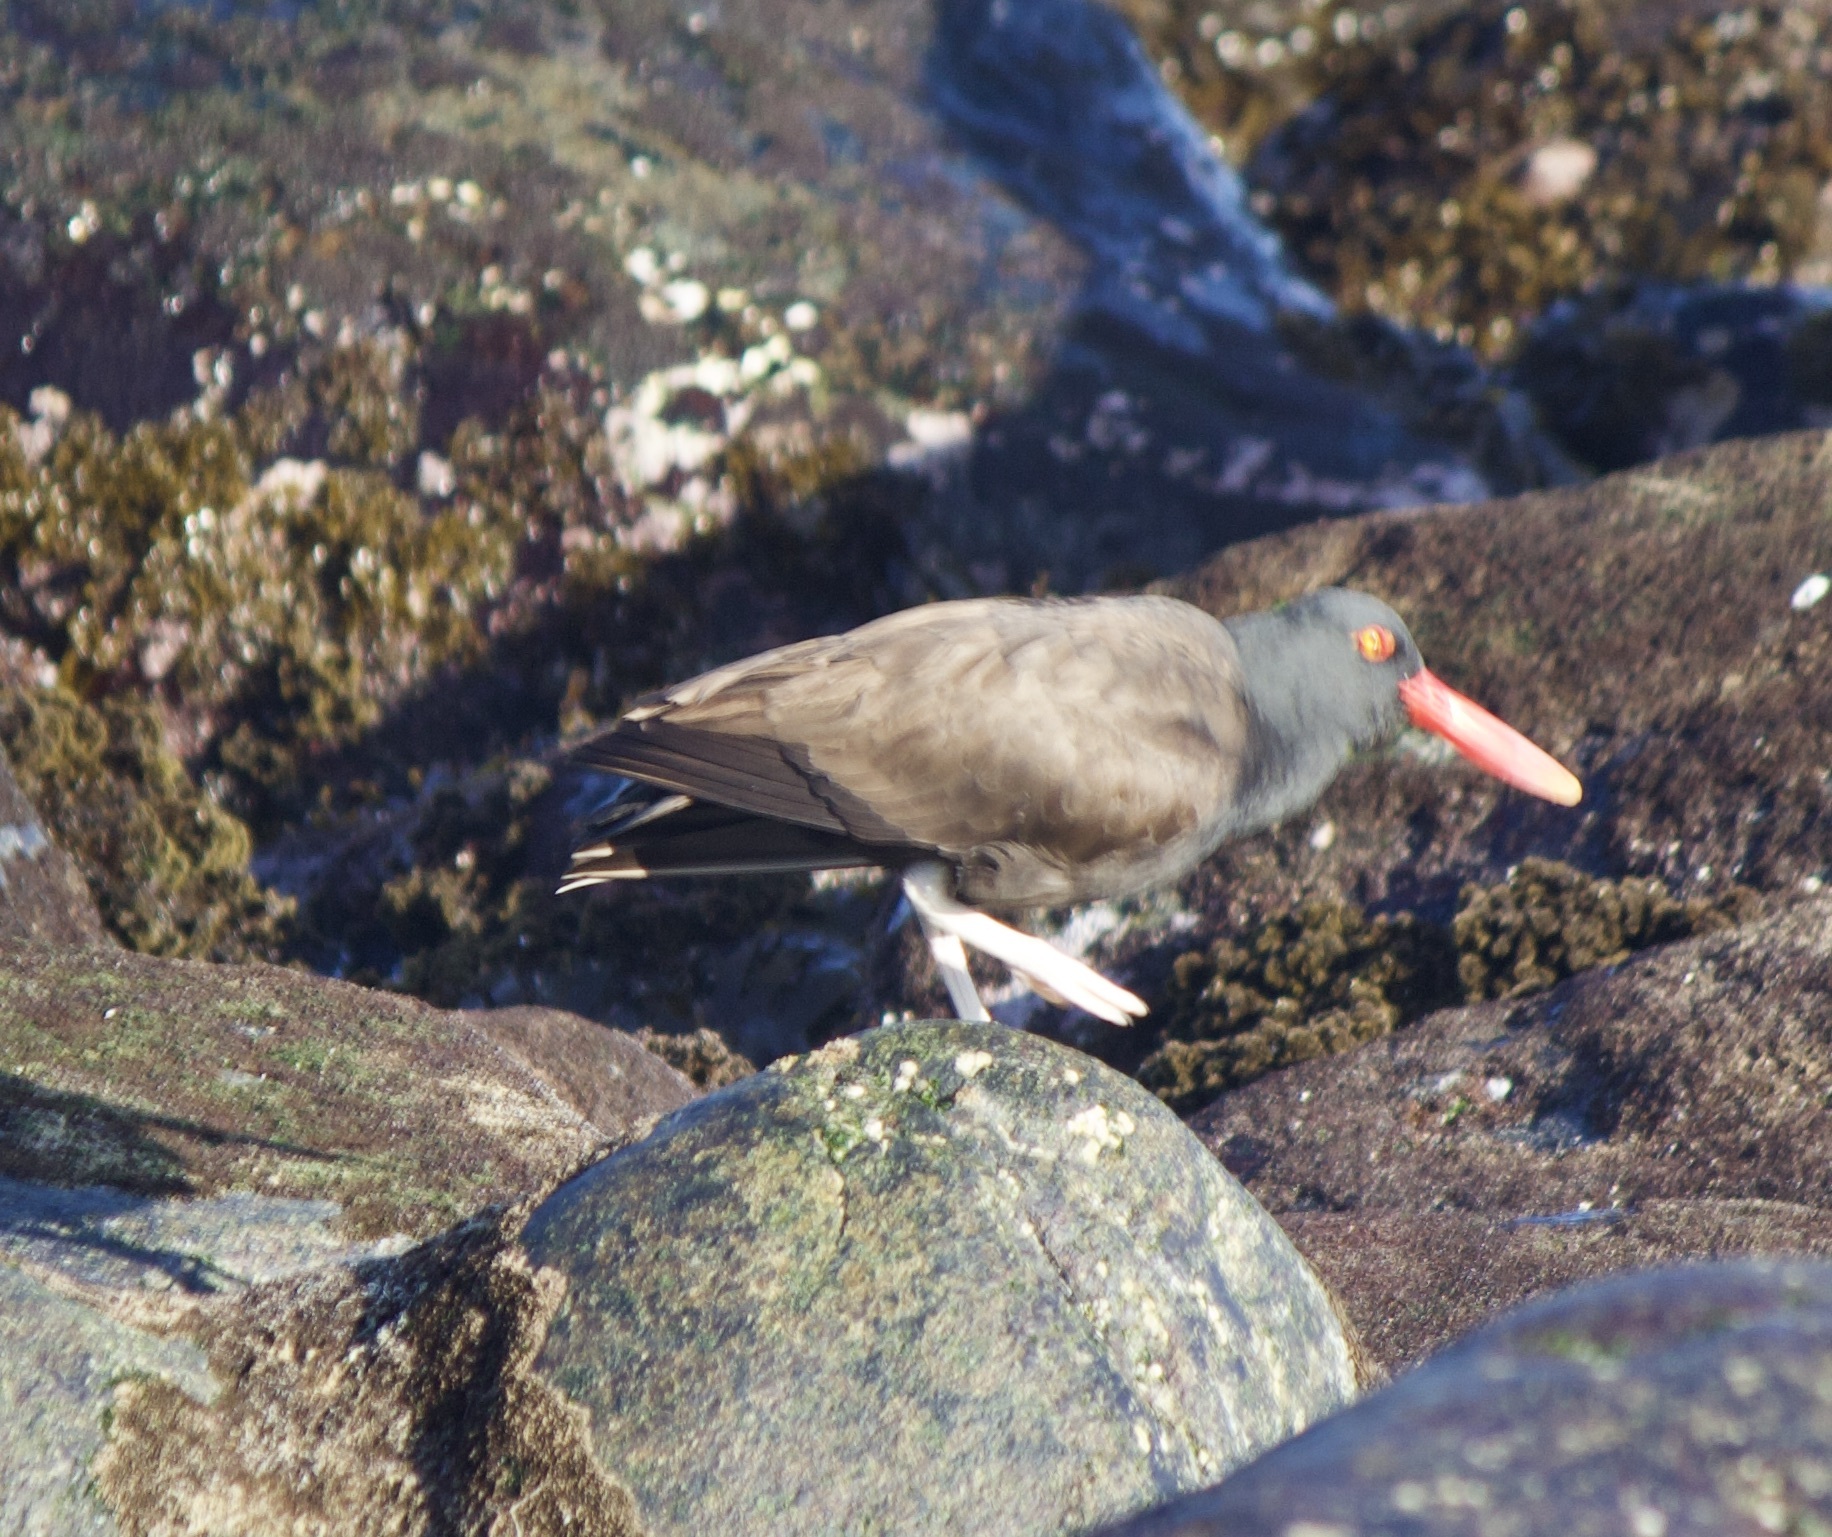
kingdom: Animalia
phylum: Chordata
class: Aves
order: Charadriiformes
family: Haematopodidae
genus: Haematopus
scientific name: Haematopus ater
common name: Blackish oystercatcher
